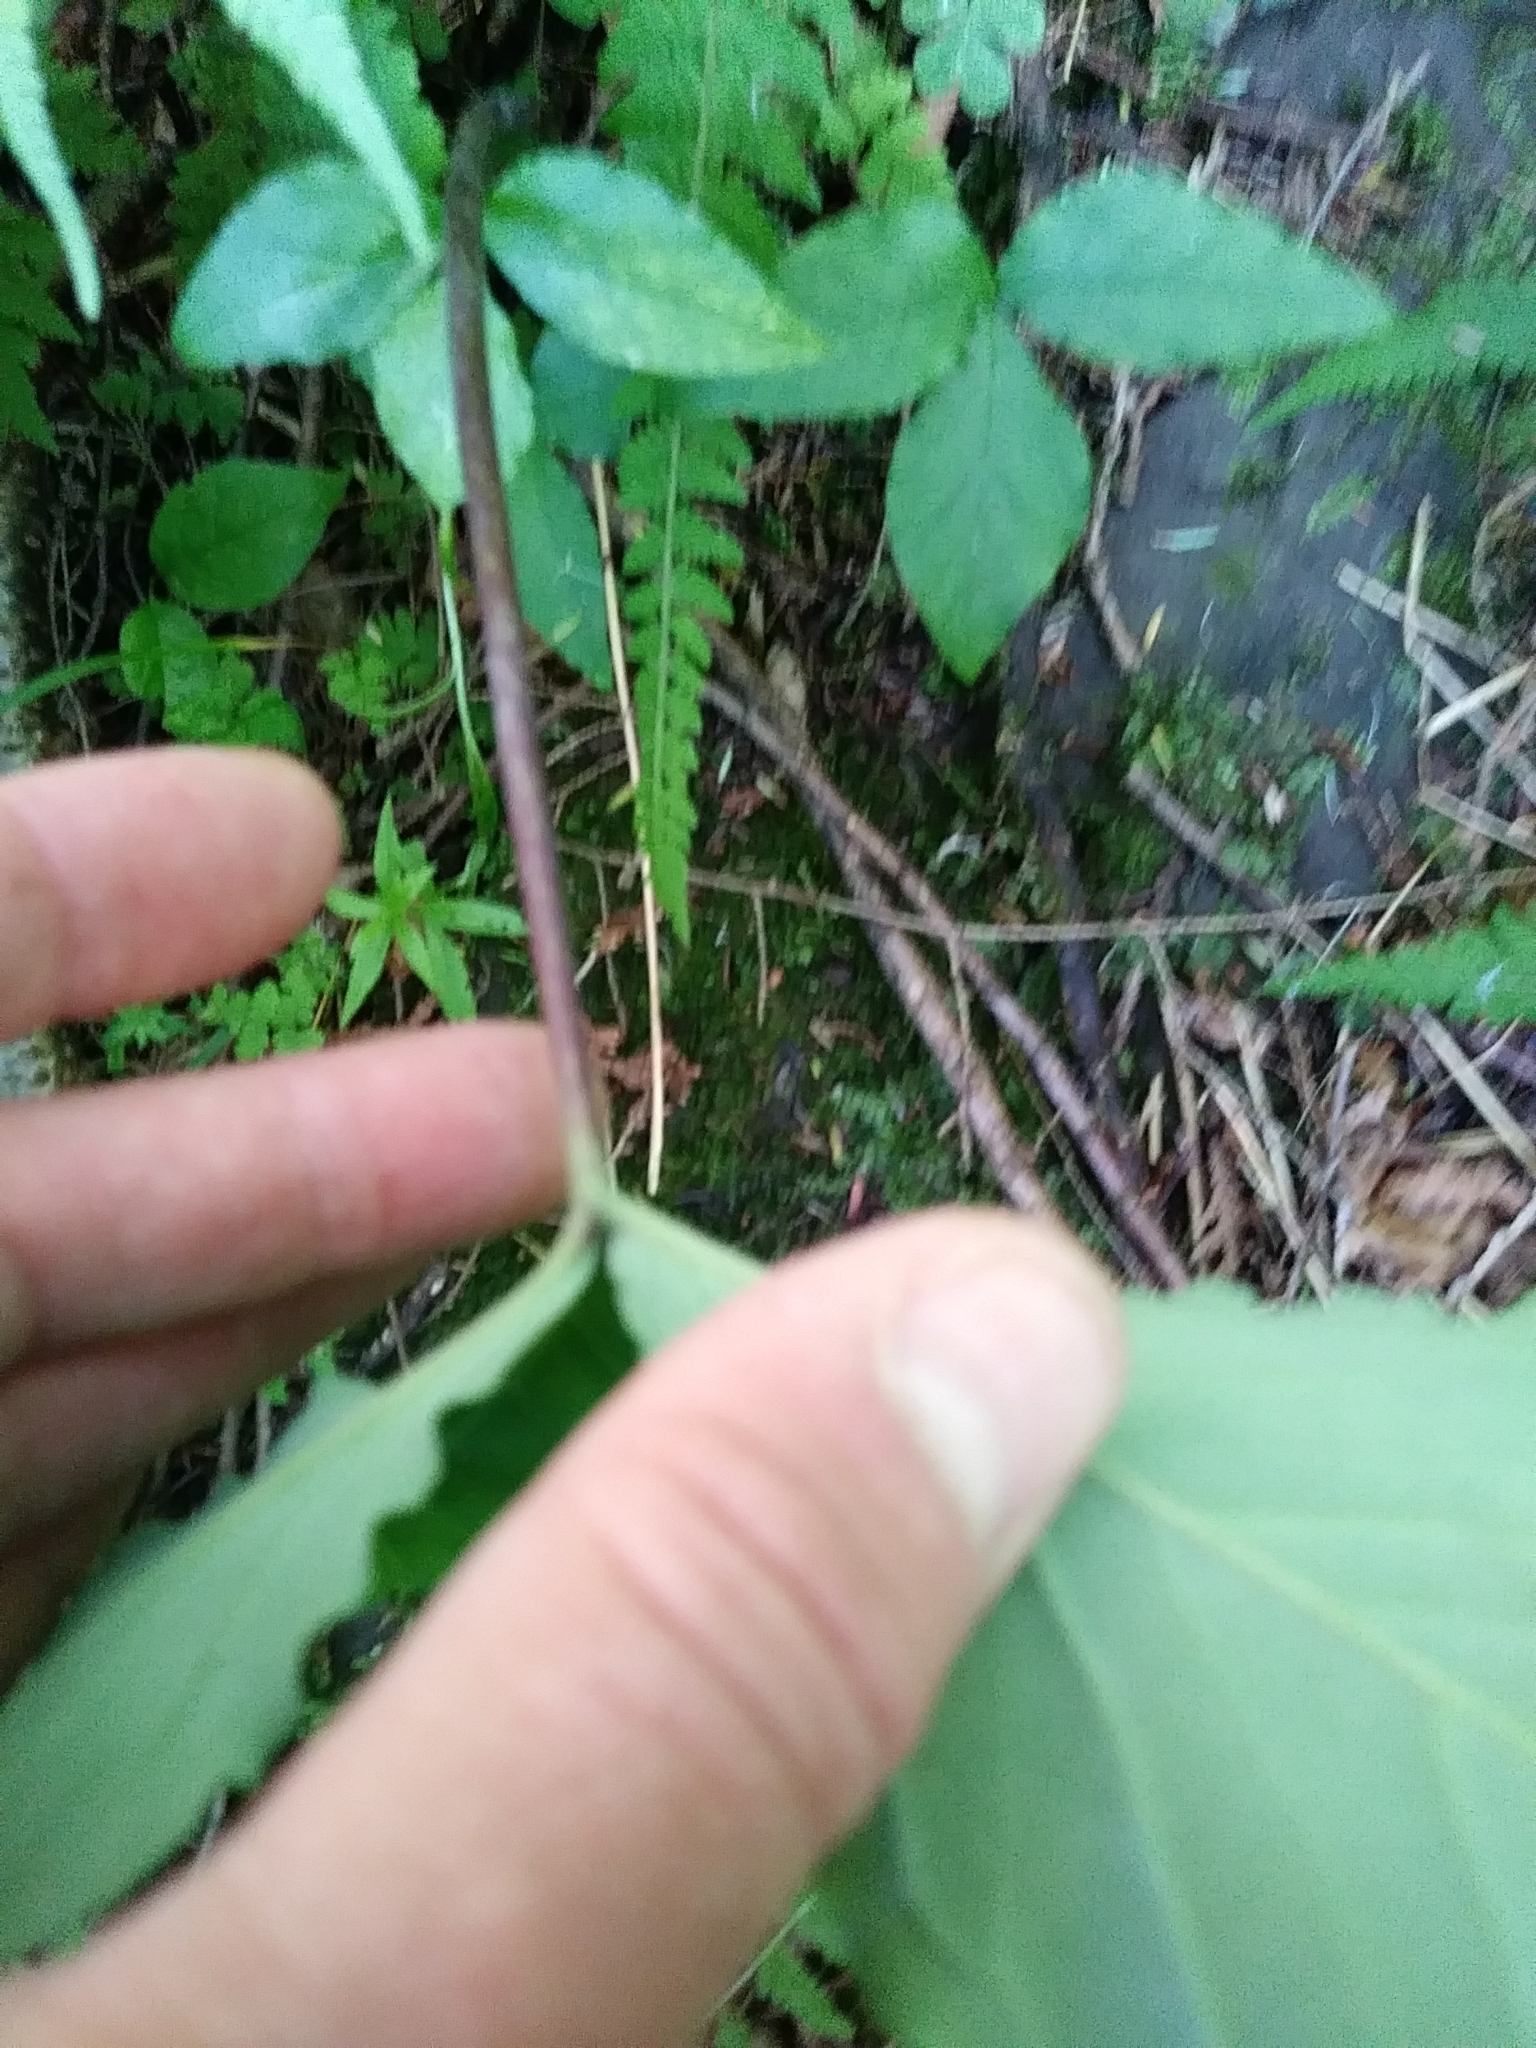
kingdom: Plantae
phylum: Tracheophyta
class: Liliopsida
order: Alismatales
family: Araceae
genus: Arisaema
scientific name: Arisaema triphyllum
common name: Jack-in-the-pulpit
